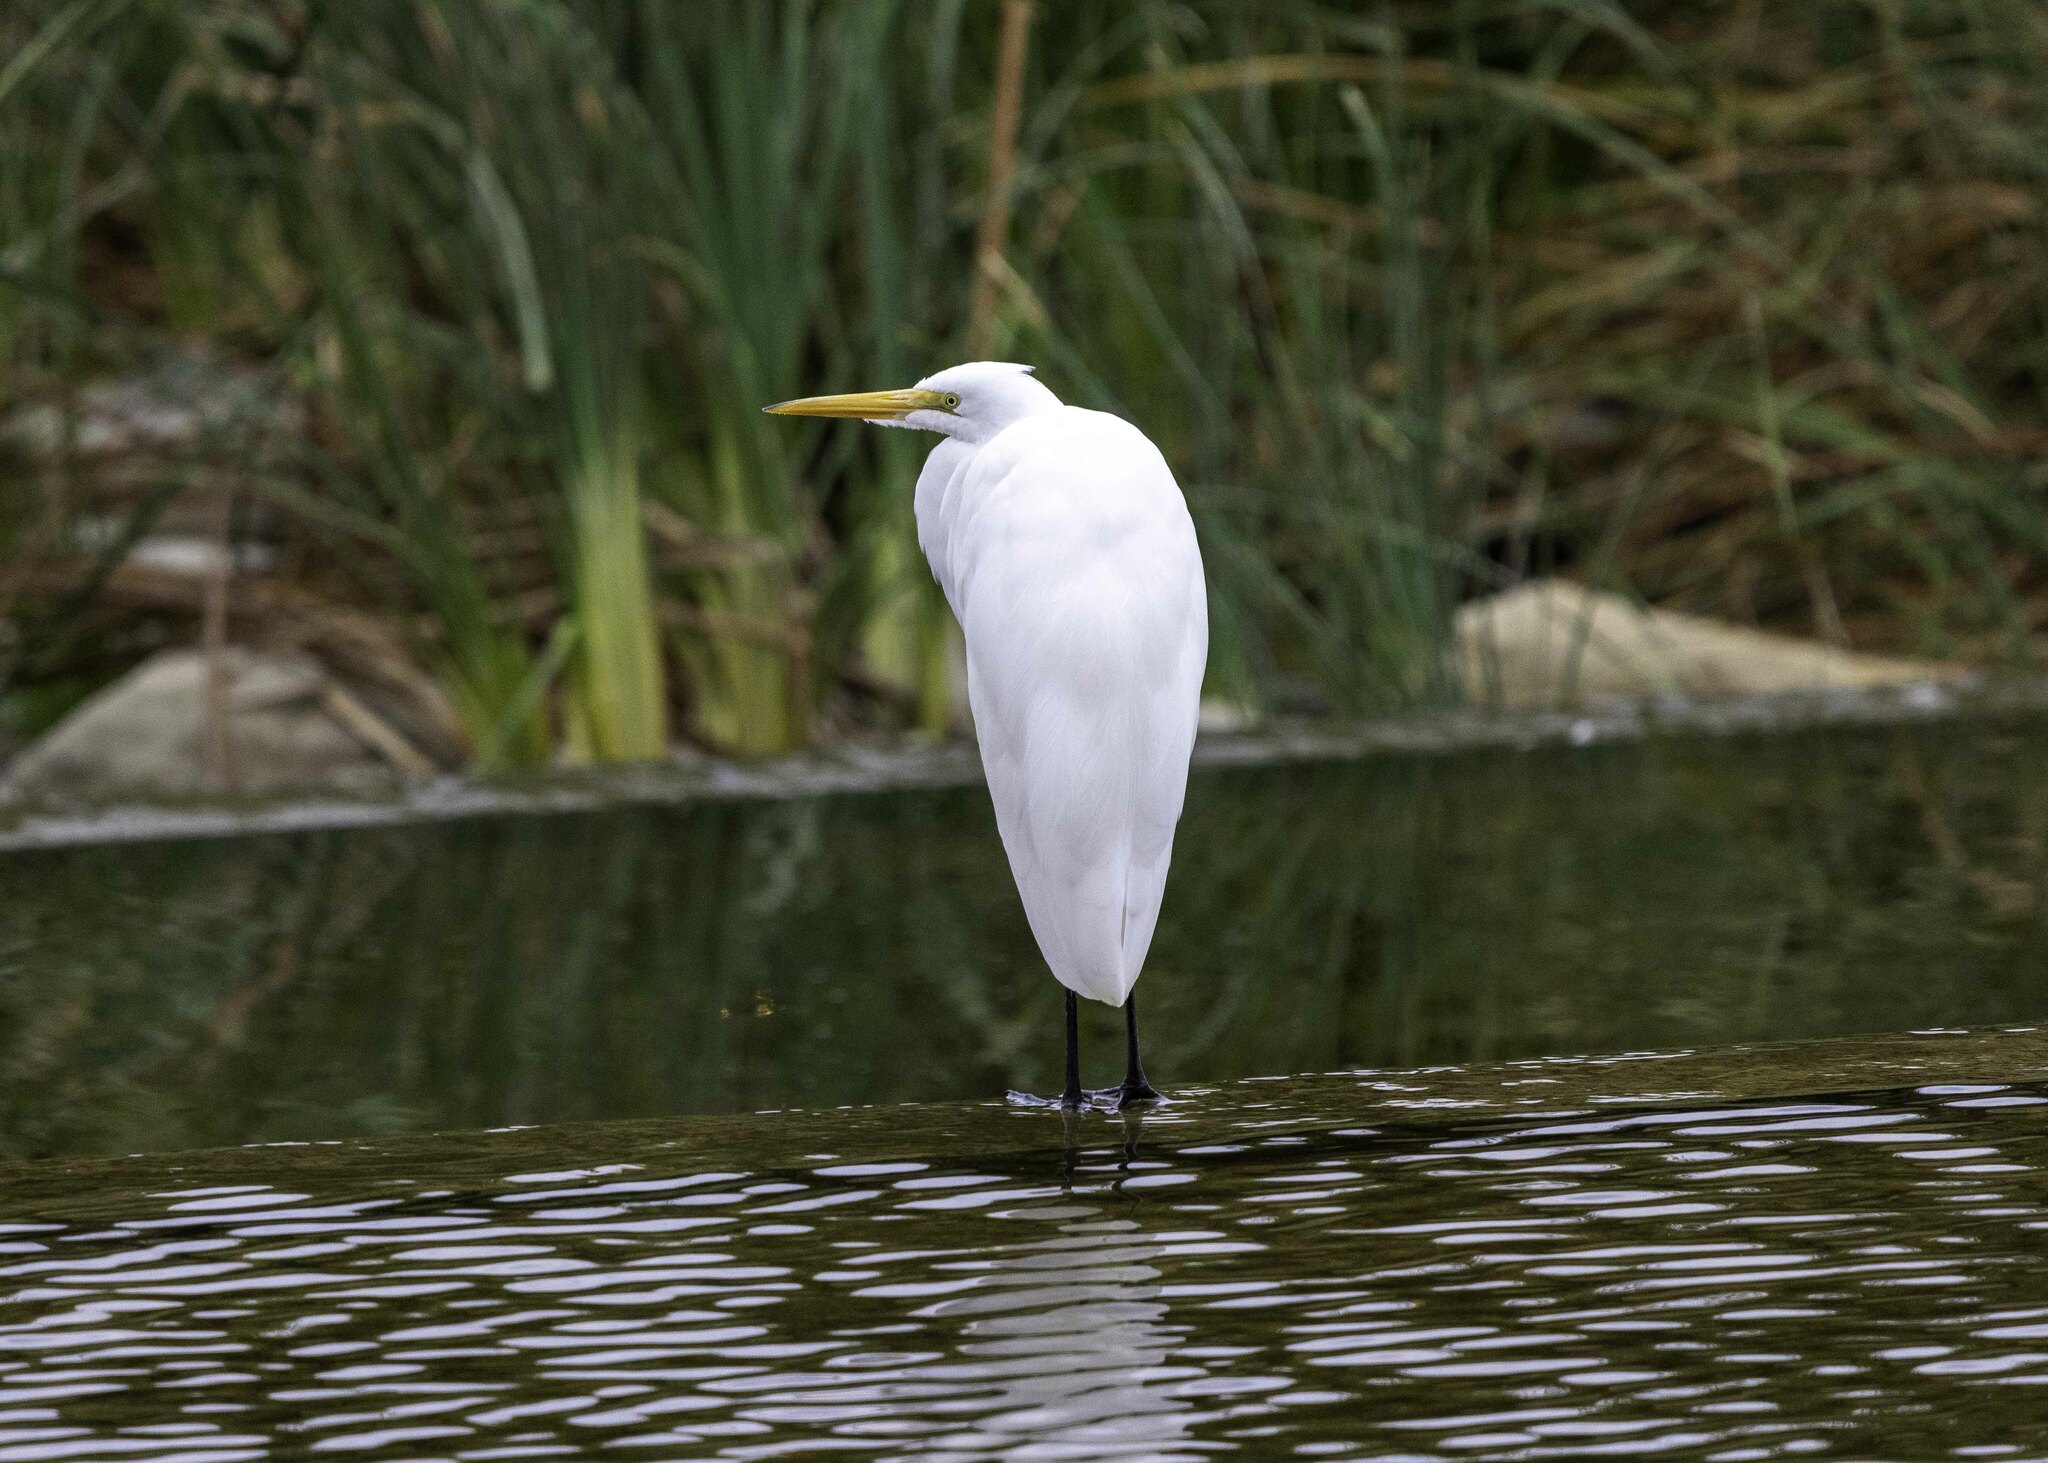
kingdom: Animalia
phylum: Chordata
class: Aves
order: Pelecaniformes
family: Ardeidae
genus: Ardea
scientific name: Ardea alba
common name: Great egret
